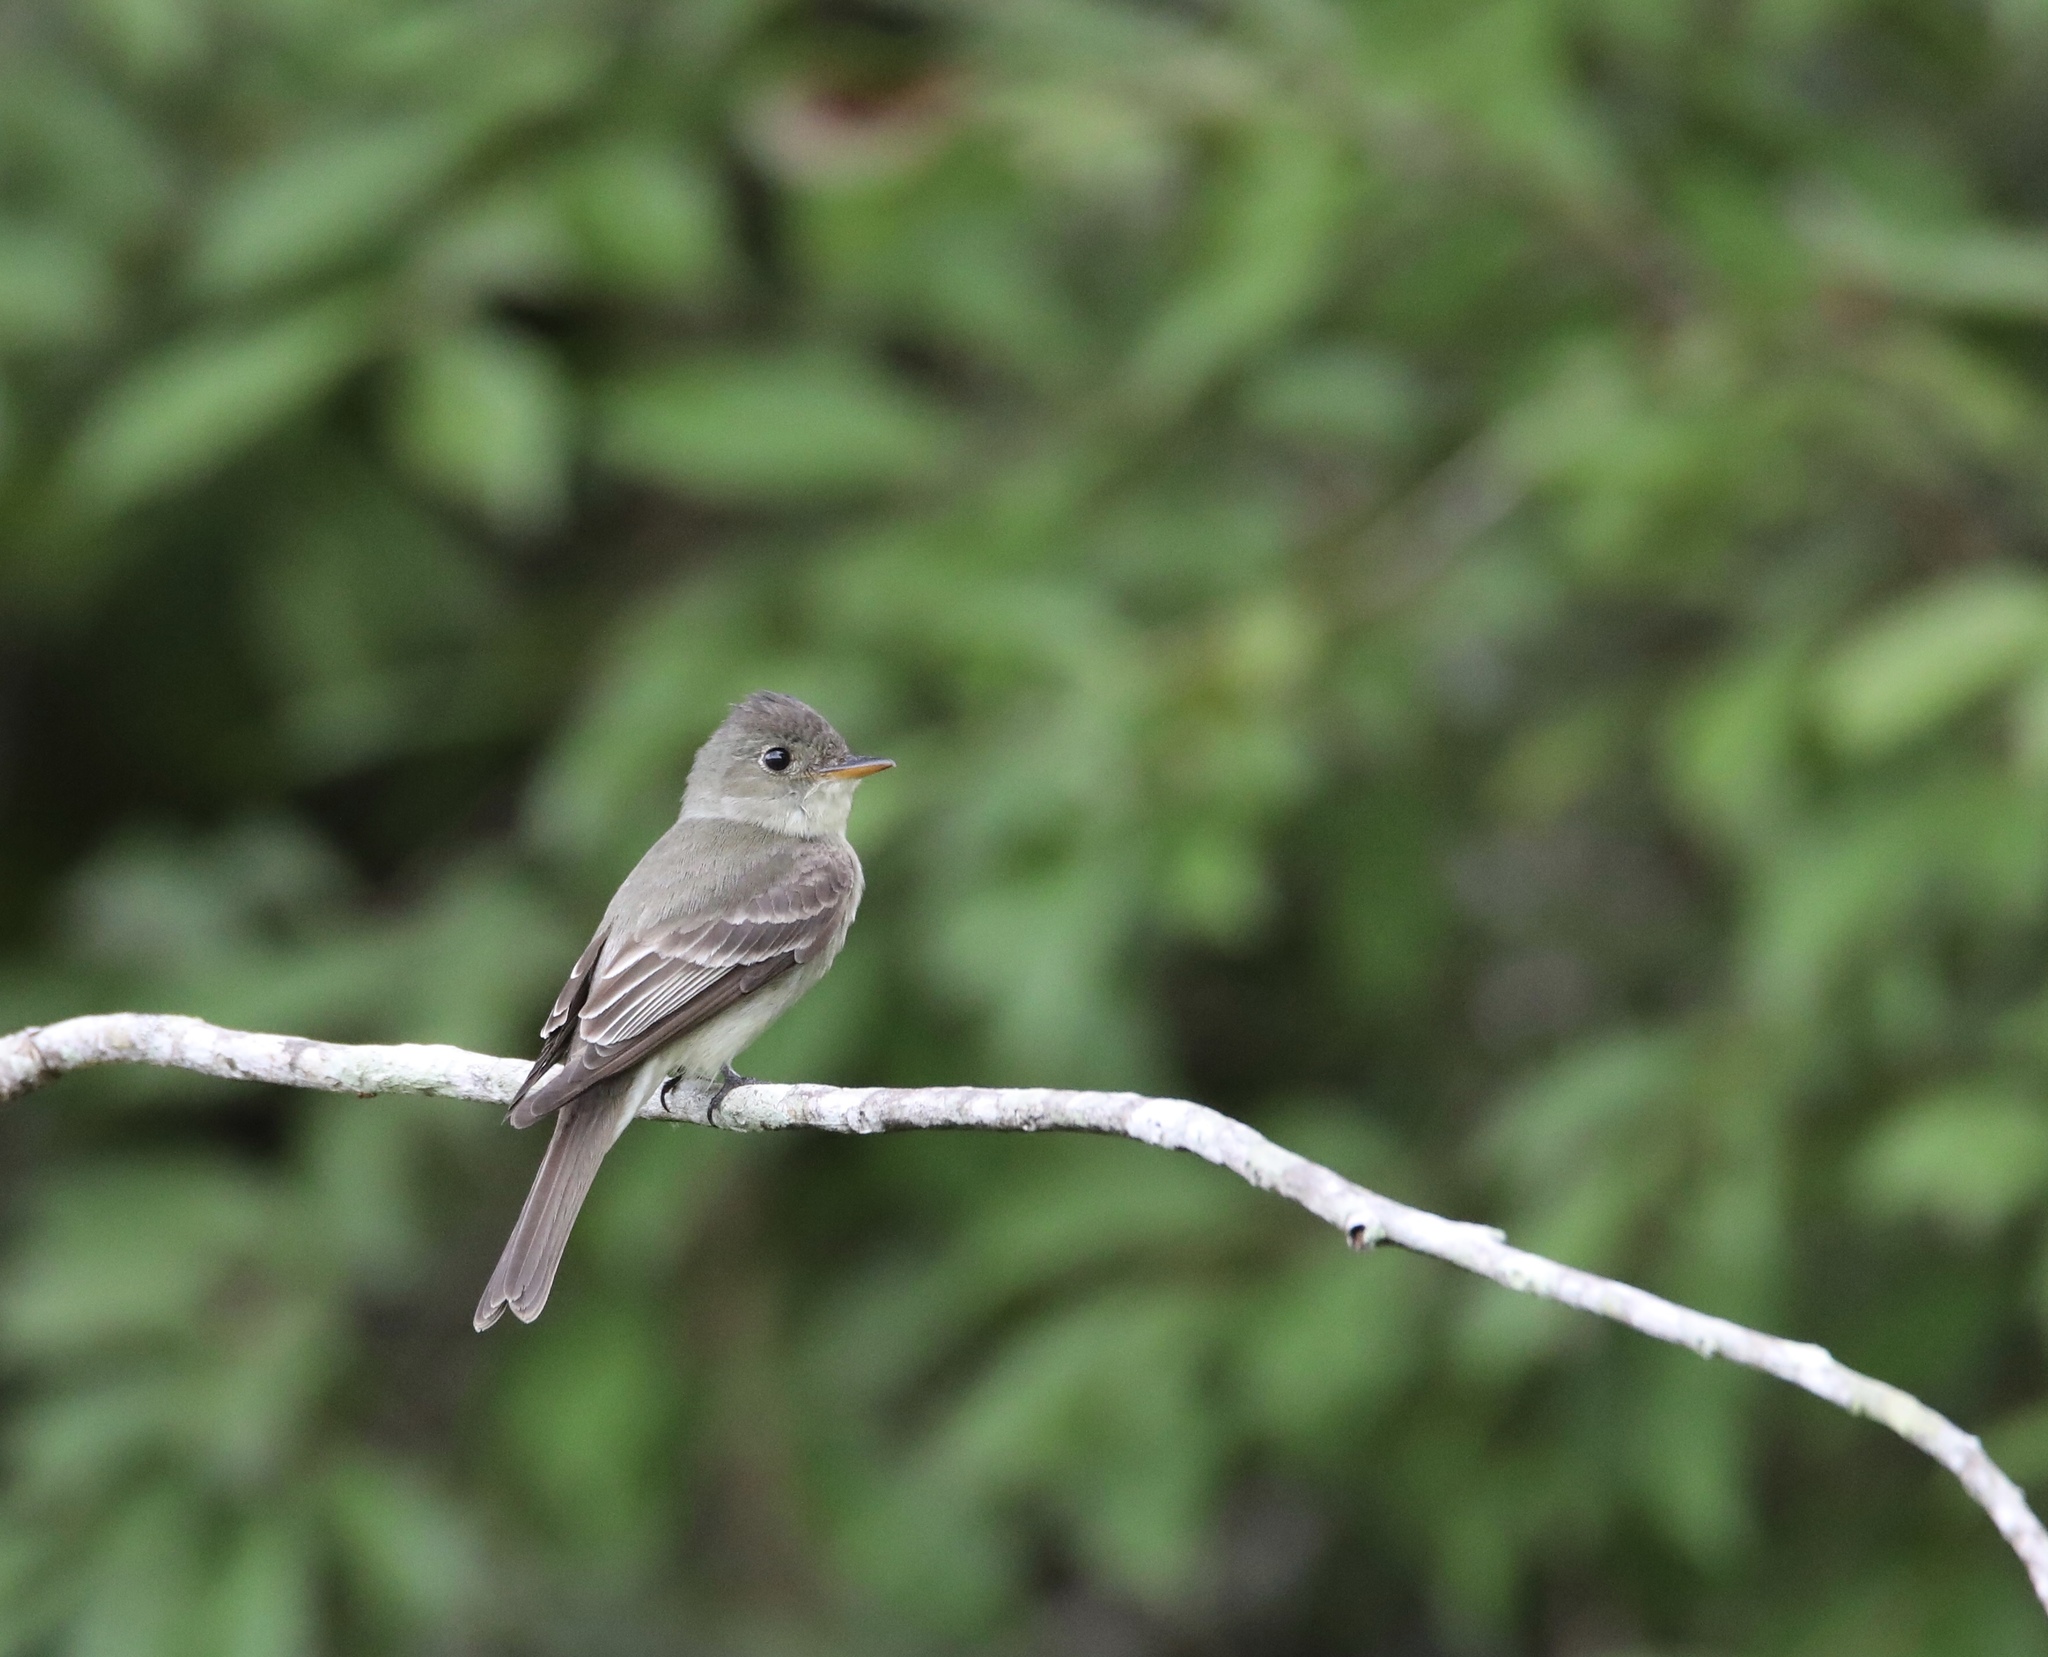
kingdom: Animalia
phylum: Chordata
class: Aves
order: Passeriformes
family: Tyrannidae
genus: Contopus
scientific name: Contopus virens
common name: Eastern wood-pewee
